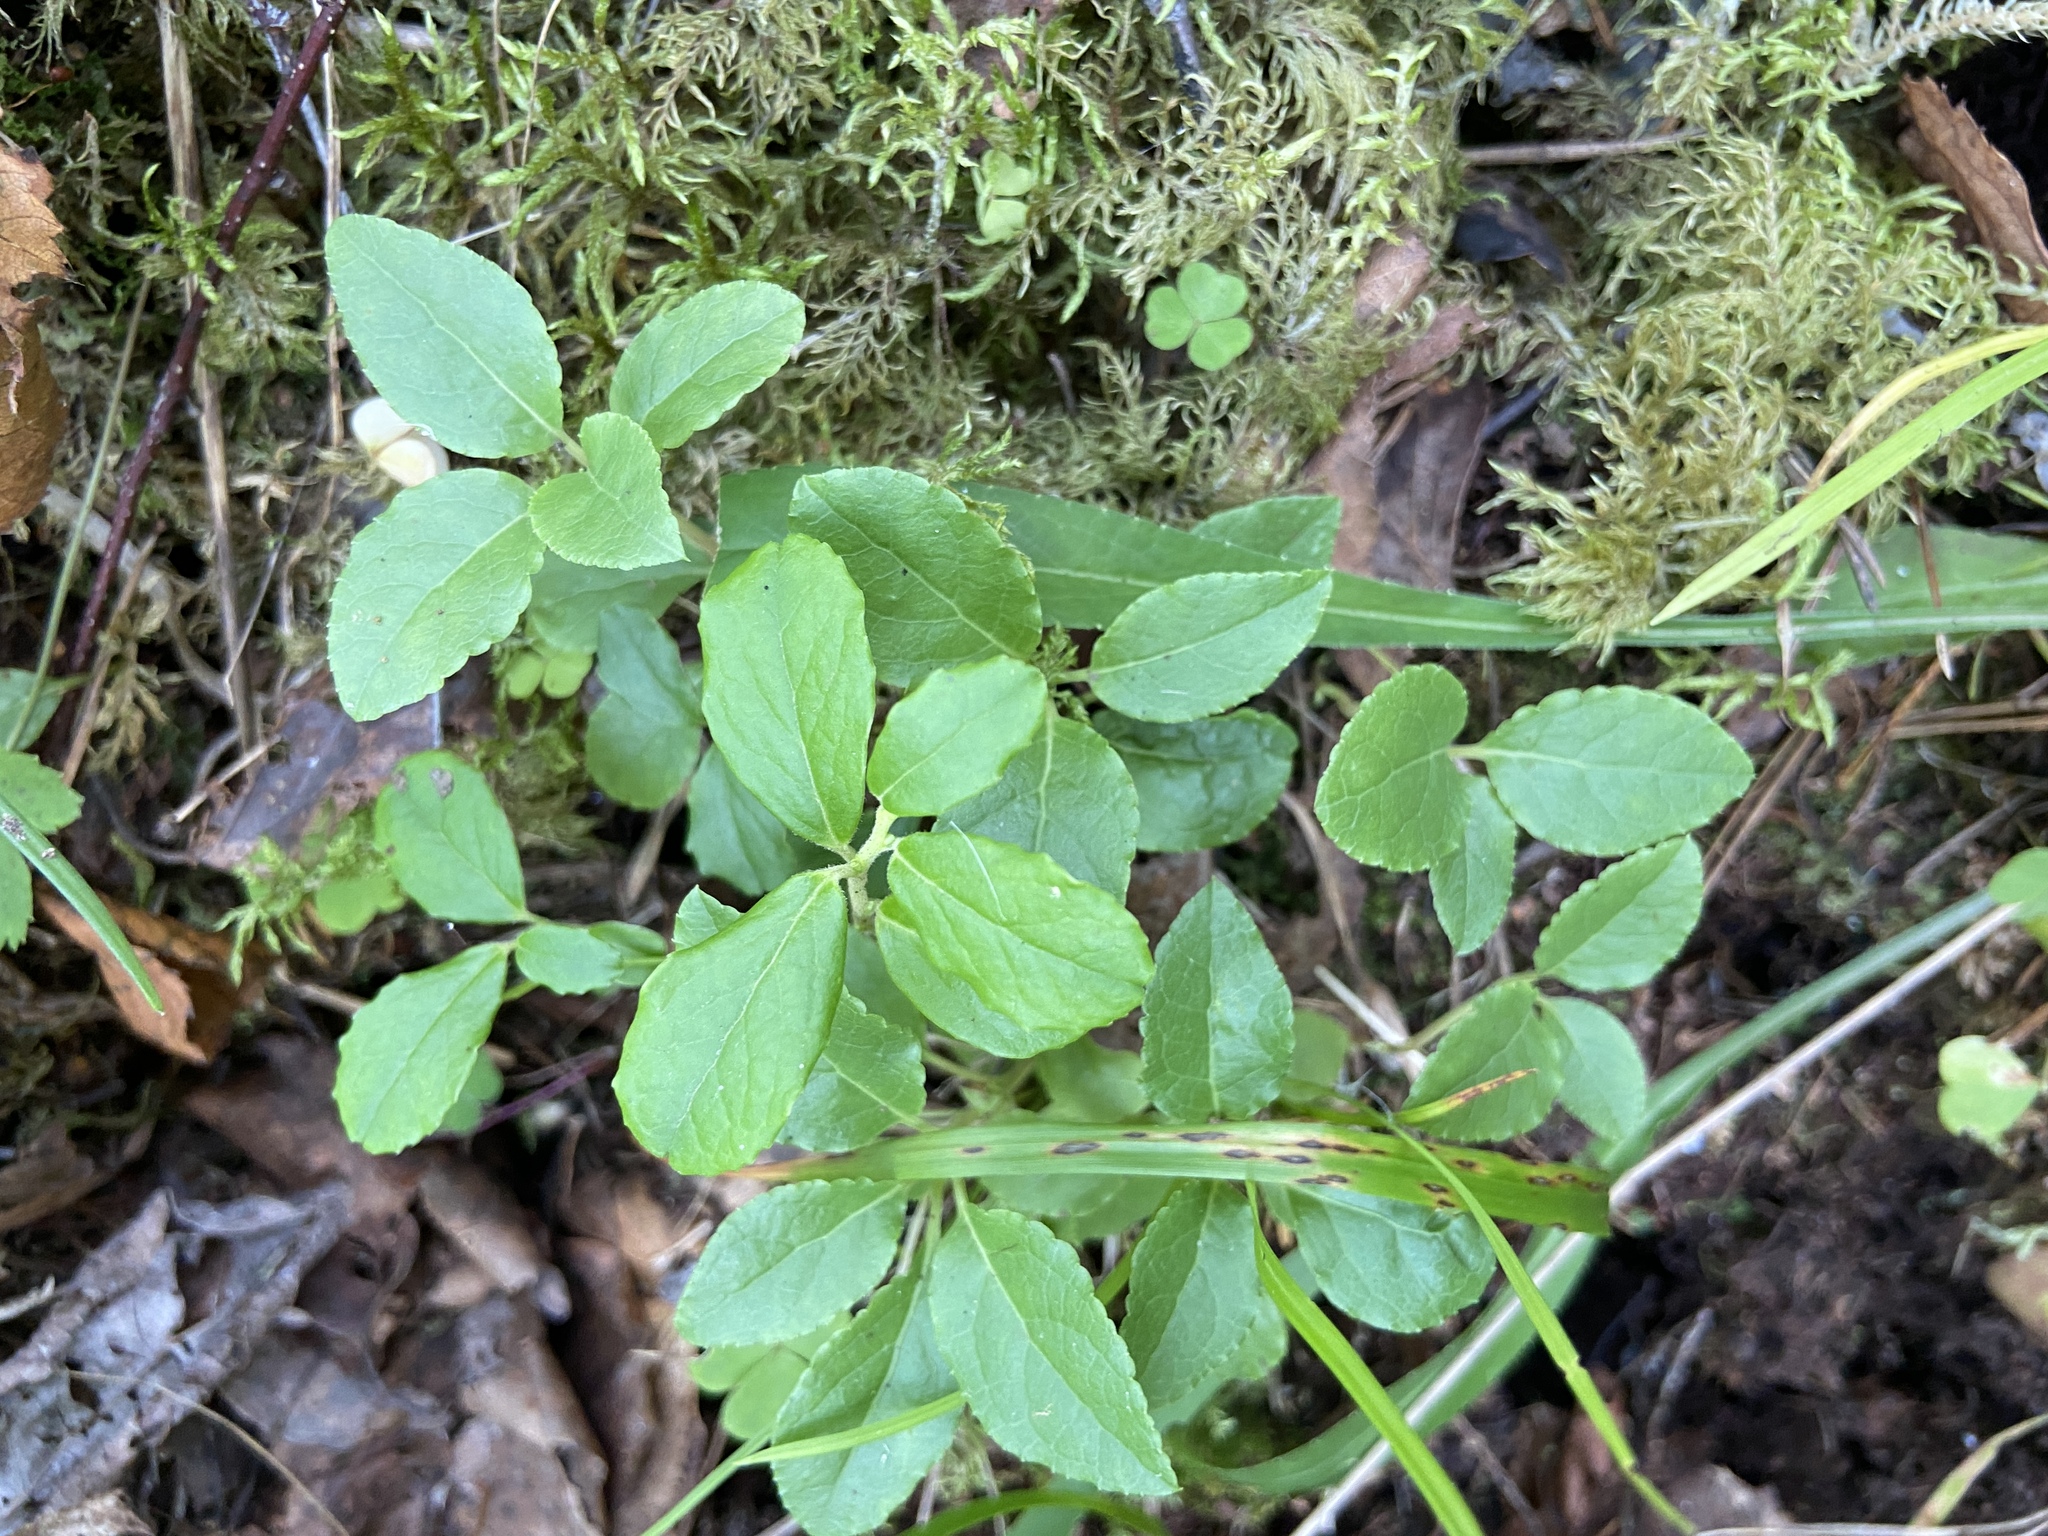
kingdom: Plantae
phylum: Tracheophyta
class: Magnoliopsida
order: Ericales
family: Ericaceae
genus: Orthilia
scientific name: Orthilia secunda
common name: One-sided orthilia
